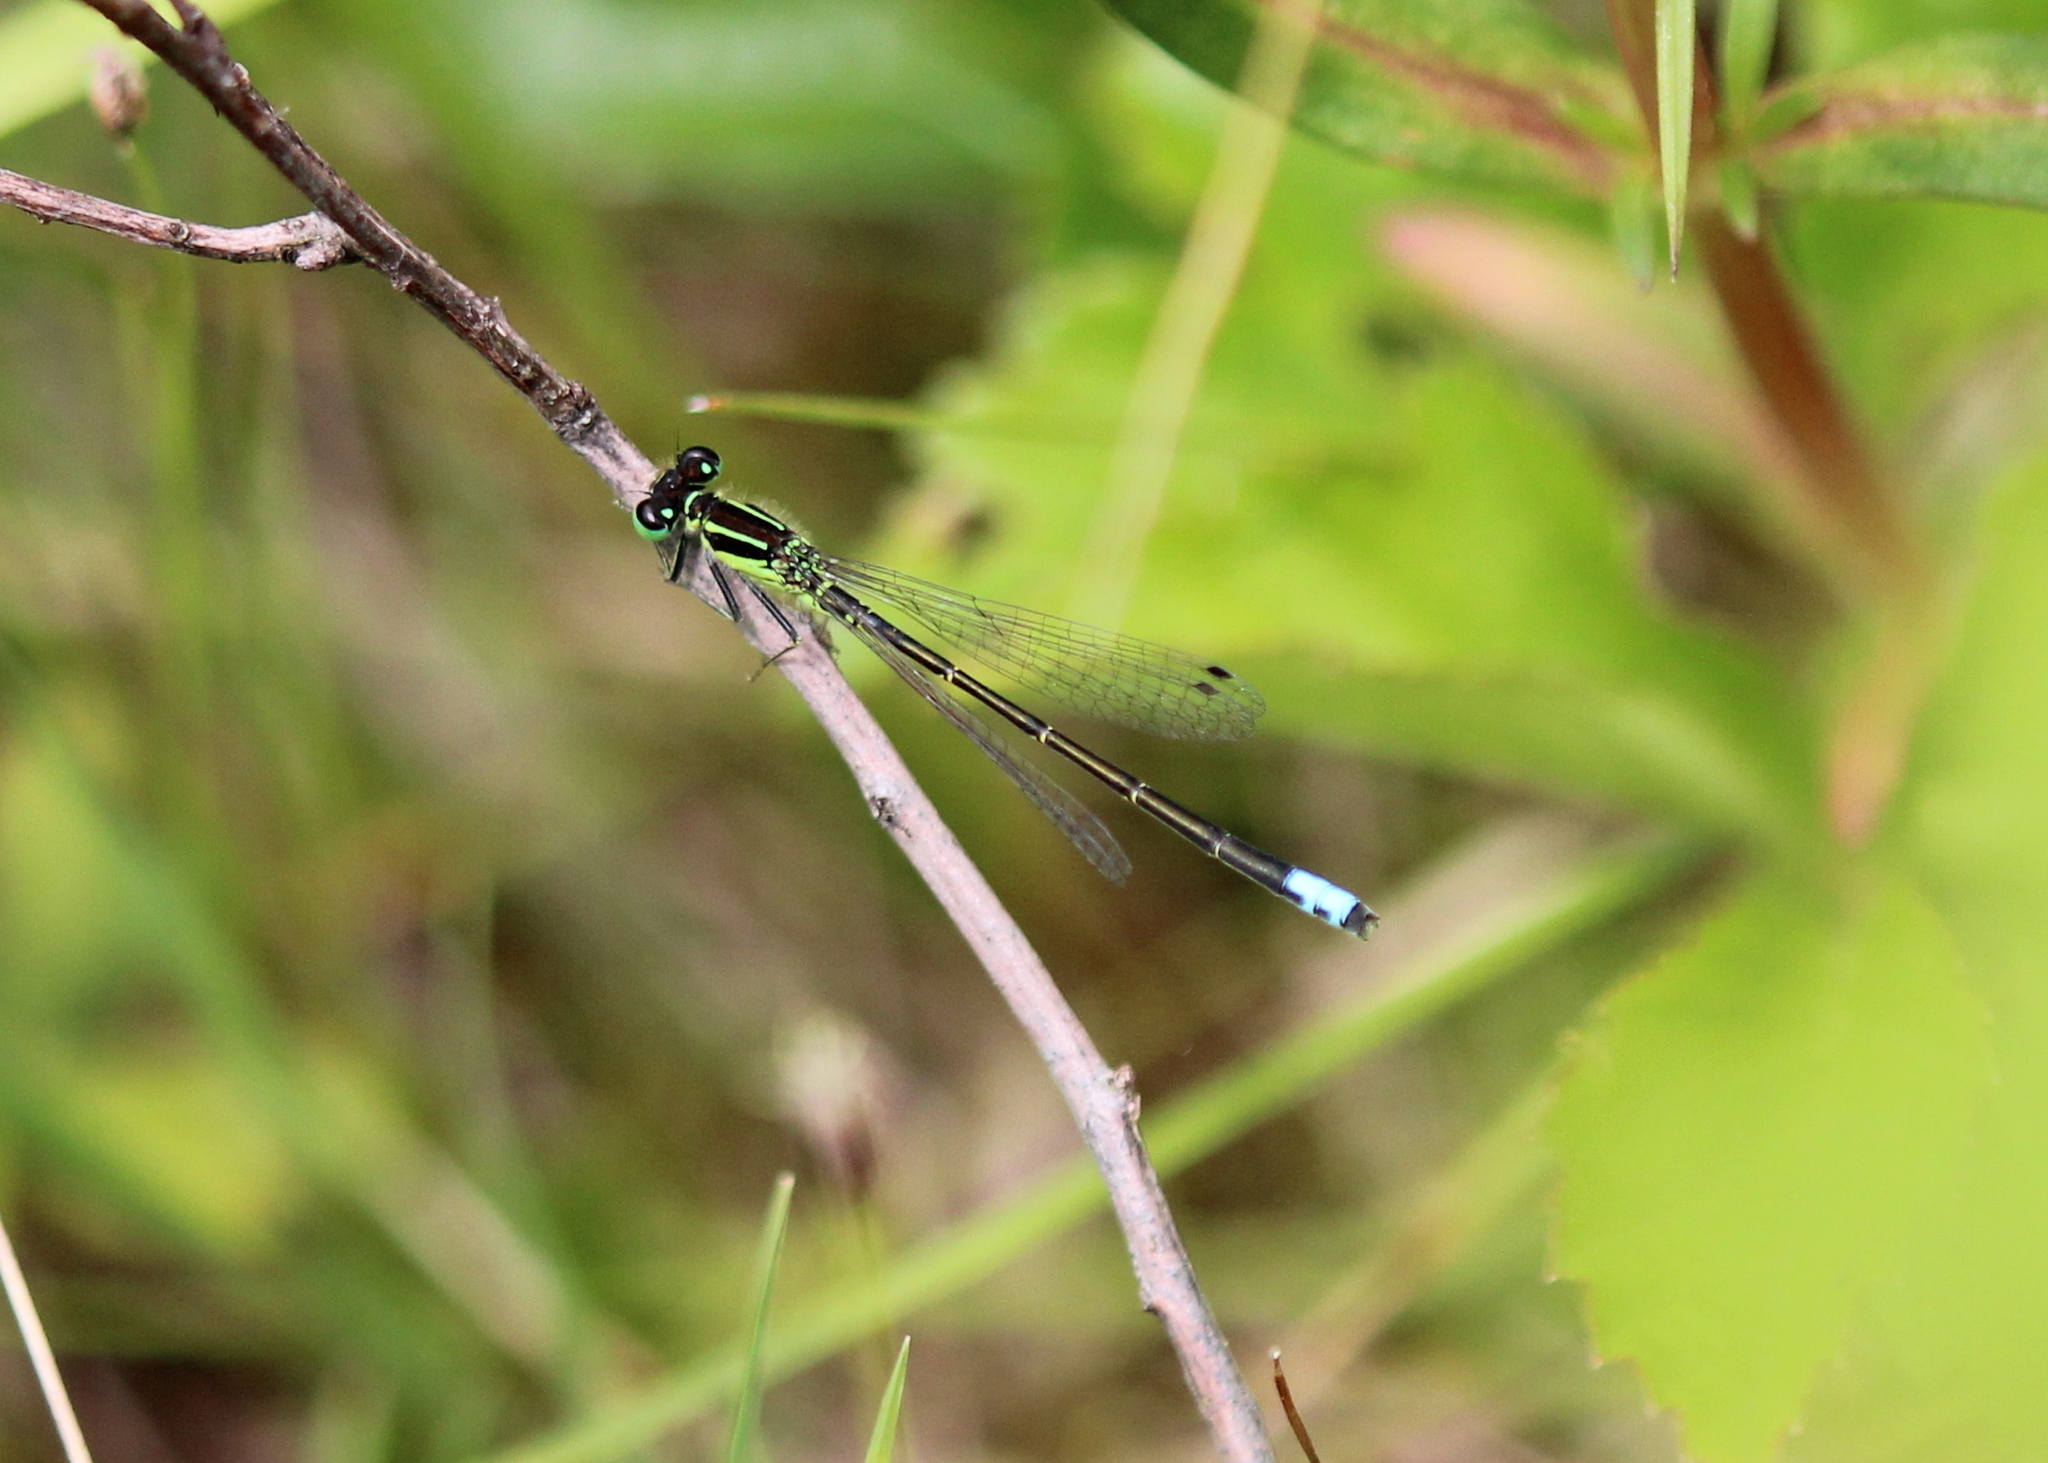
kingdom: Animalia
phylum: Arthropoda
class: Insecta
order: Odonata
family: Coenagrionidae
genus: Ischnura
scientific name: Ischnura verticalis
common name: Eastern forktail
